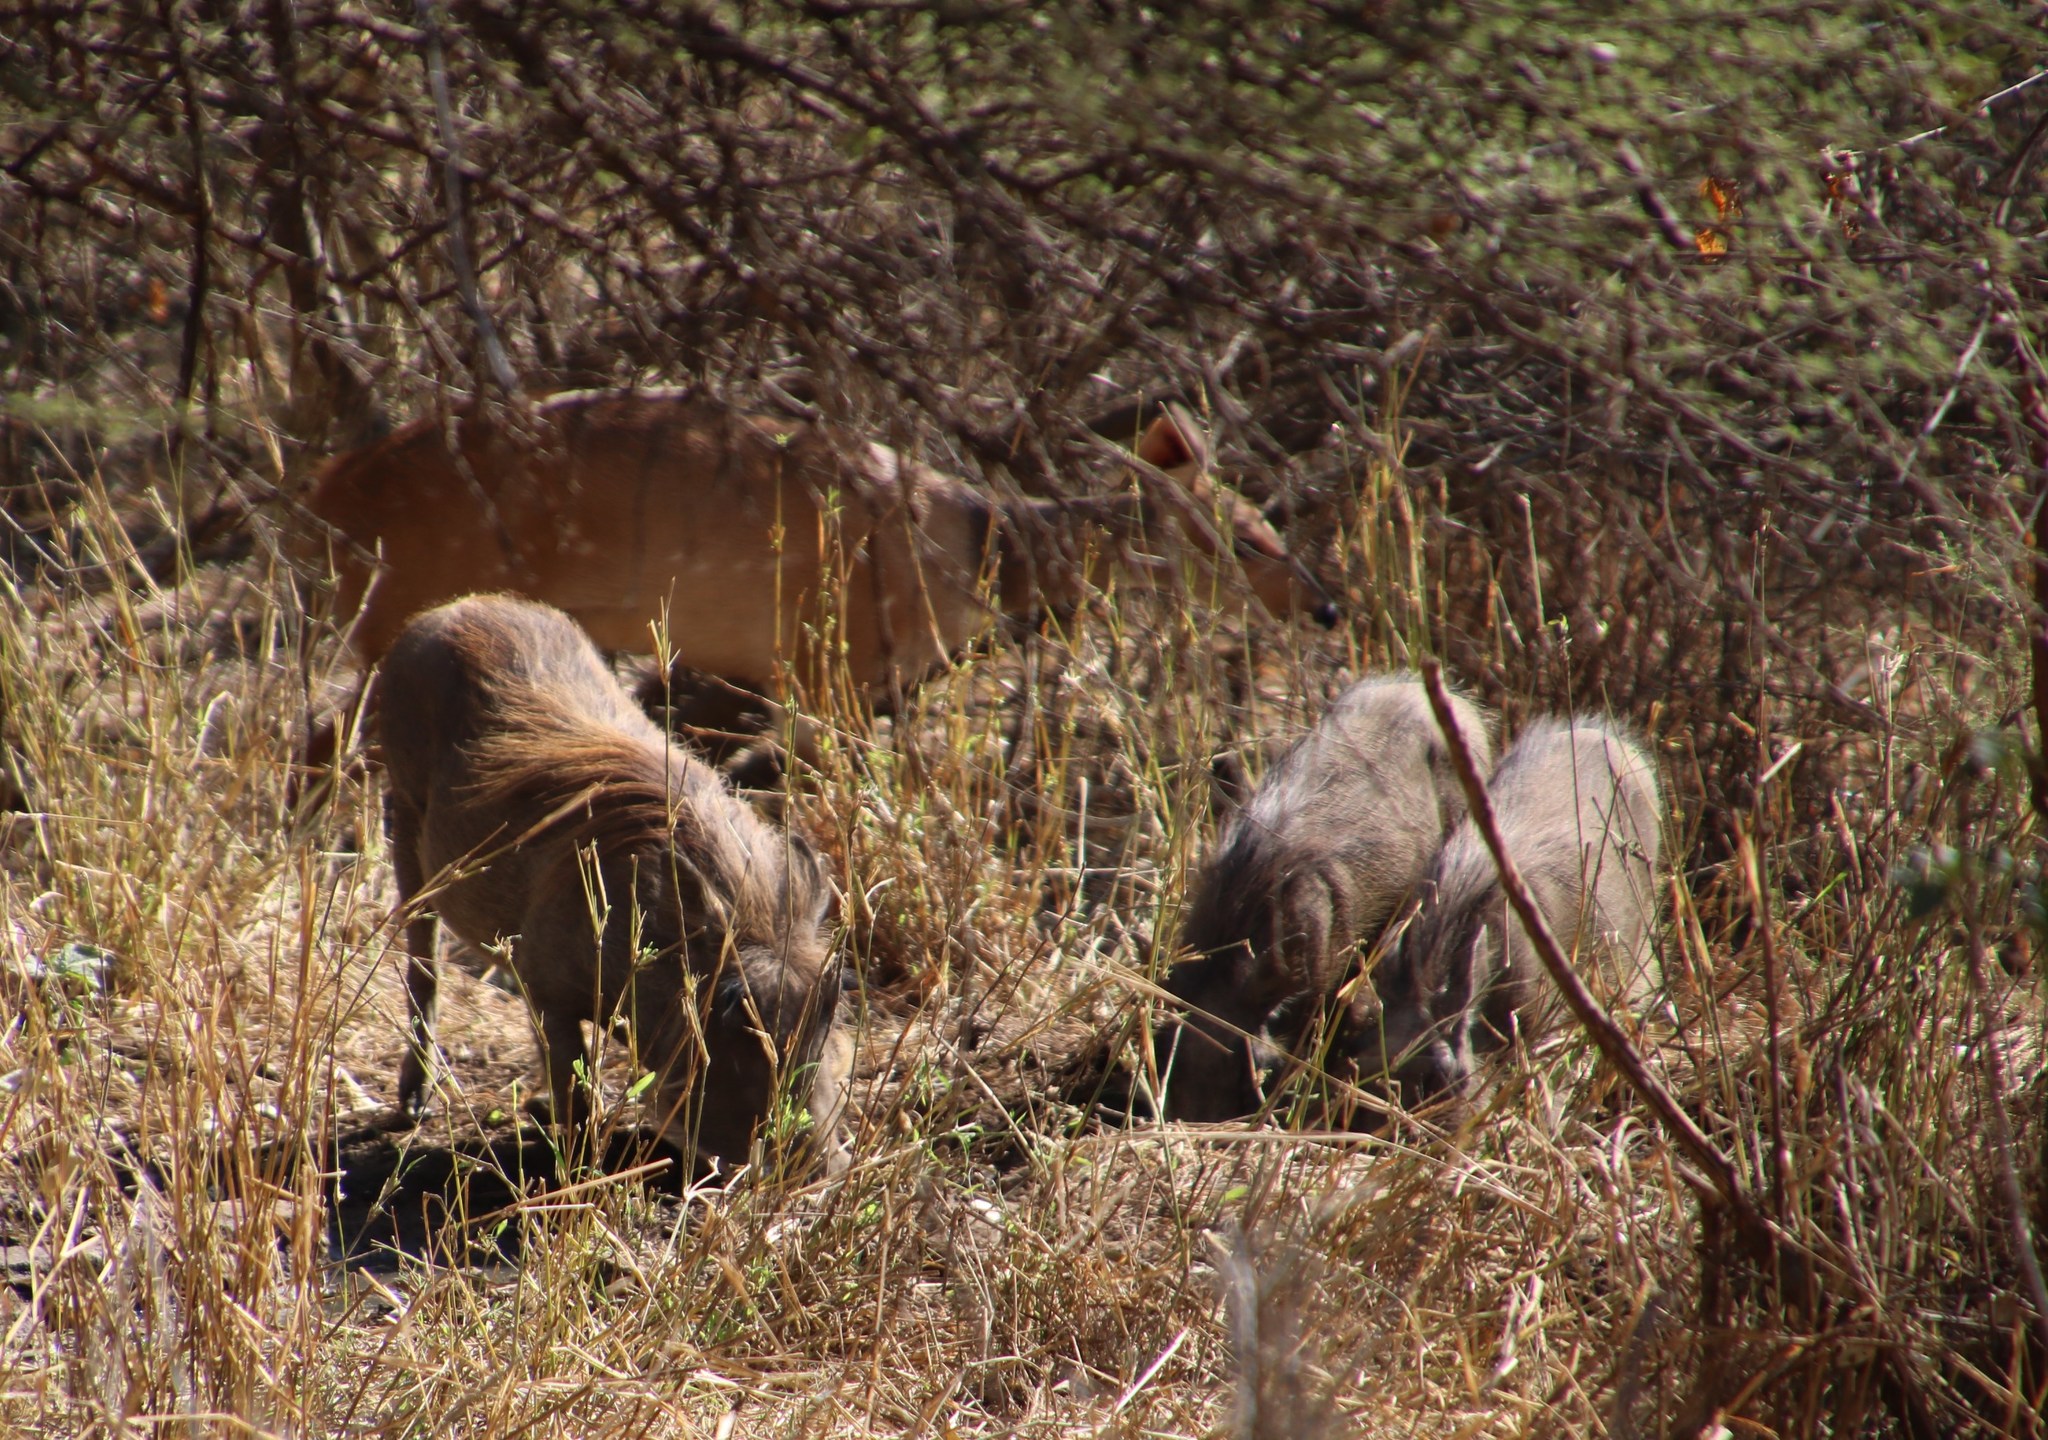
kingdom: Animalia
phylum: Chordata
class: Mammalia
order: Artiodactyla
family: Suidae
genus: Phacochoerus
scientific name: Phacochoerus africanus
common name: Common warthog
